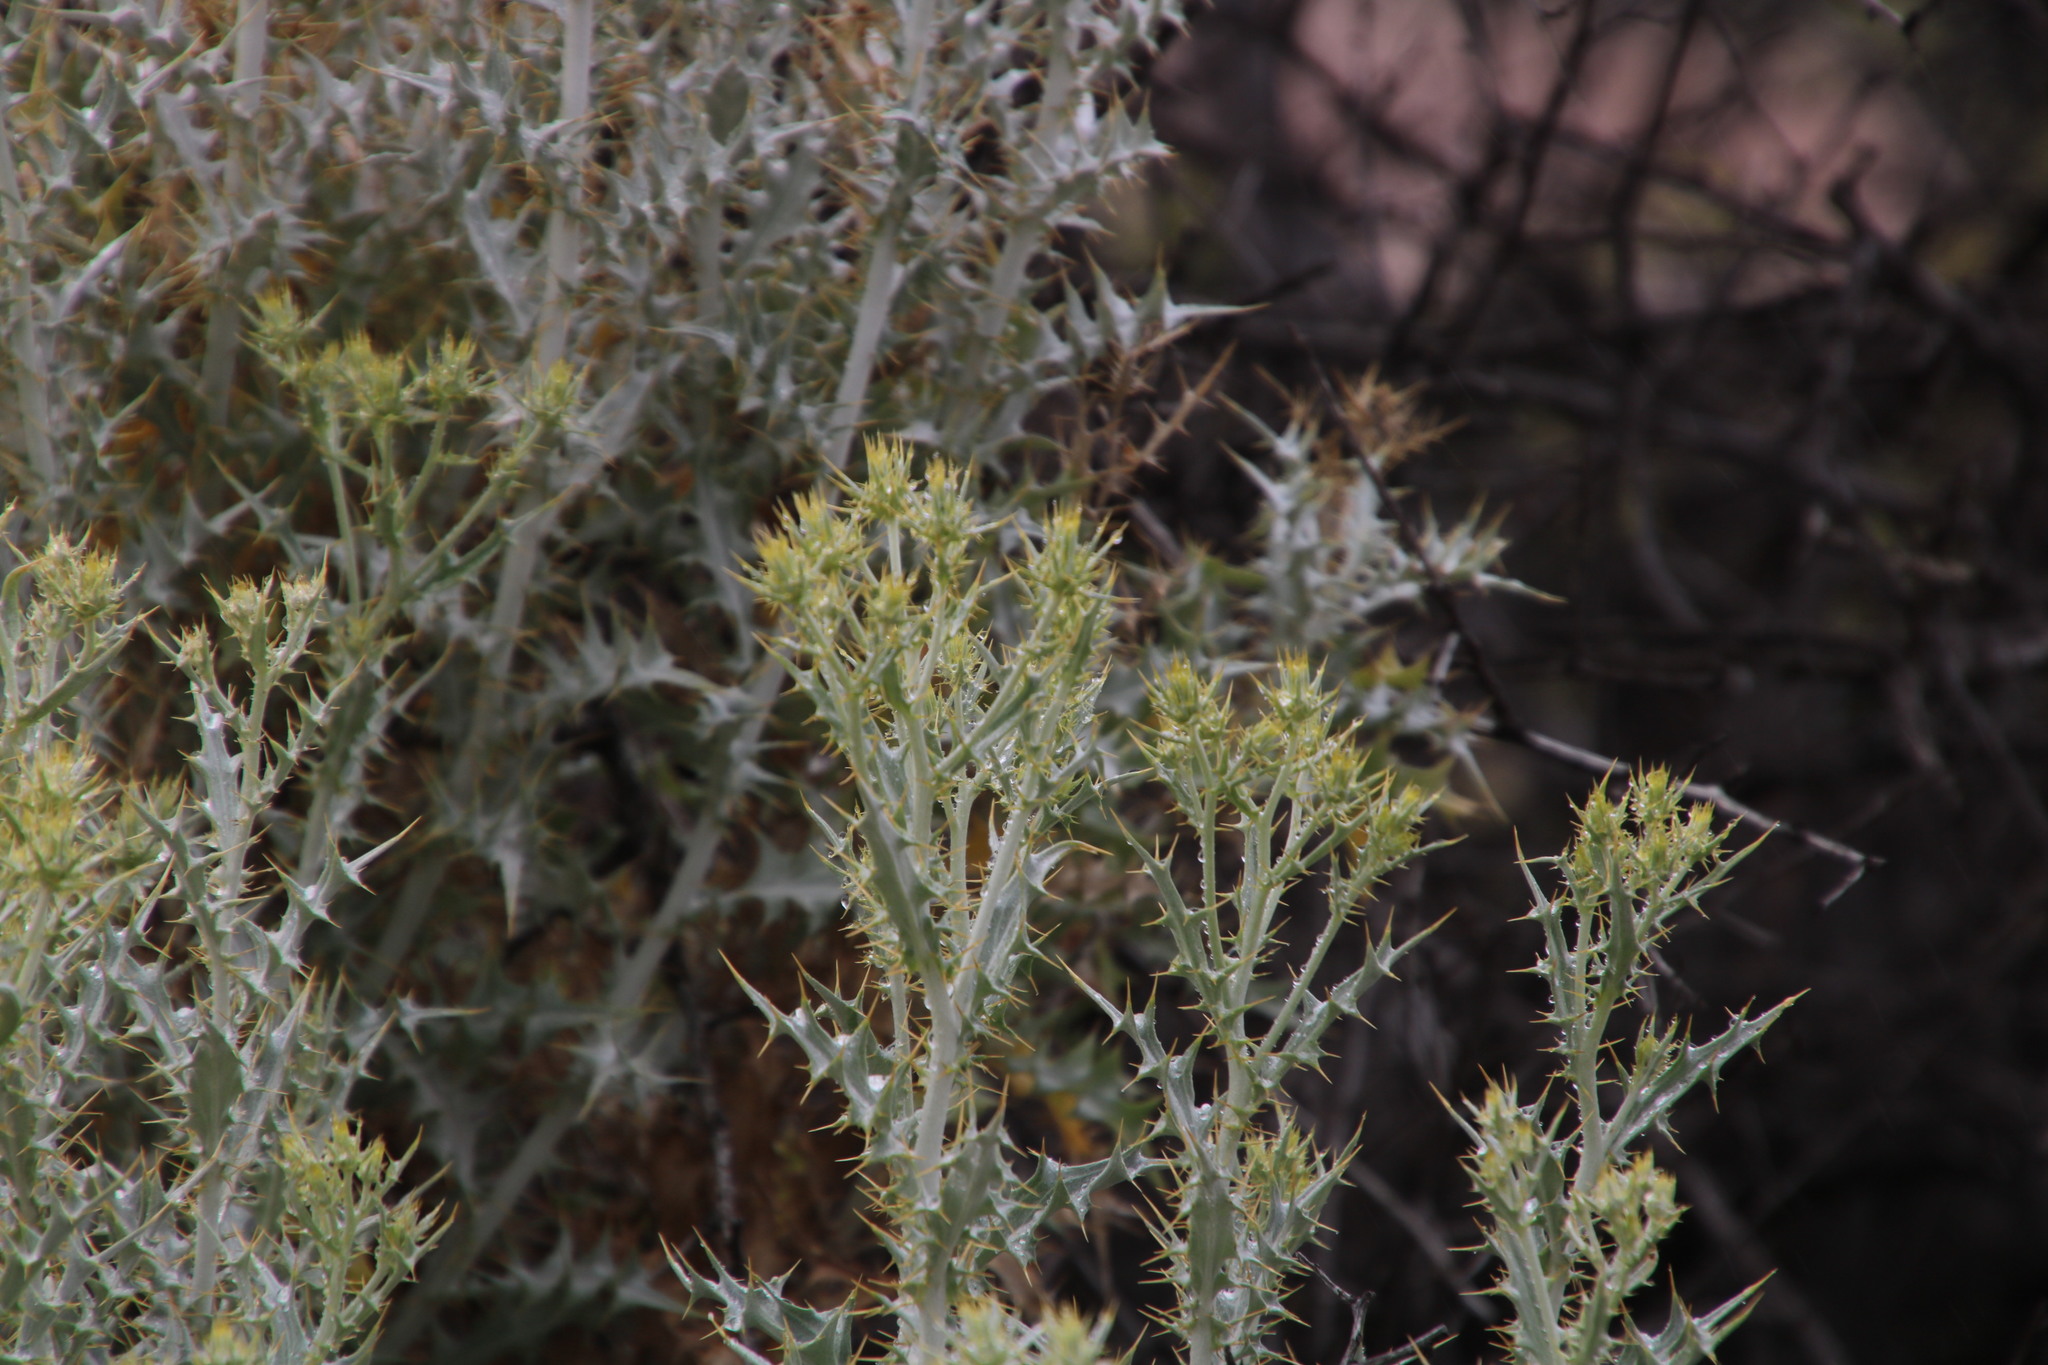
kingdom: Plantae
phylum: Tracheophyta
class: Magnoliopsida
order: Asterales
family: Asteraceae
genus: Berkheya
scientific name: Berkheya canescens
